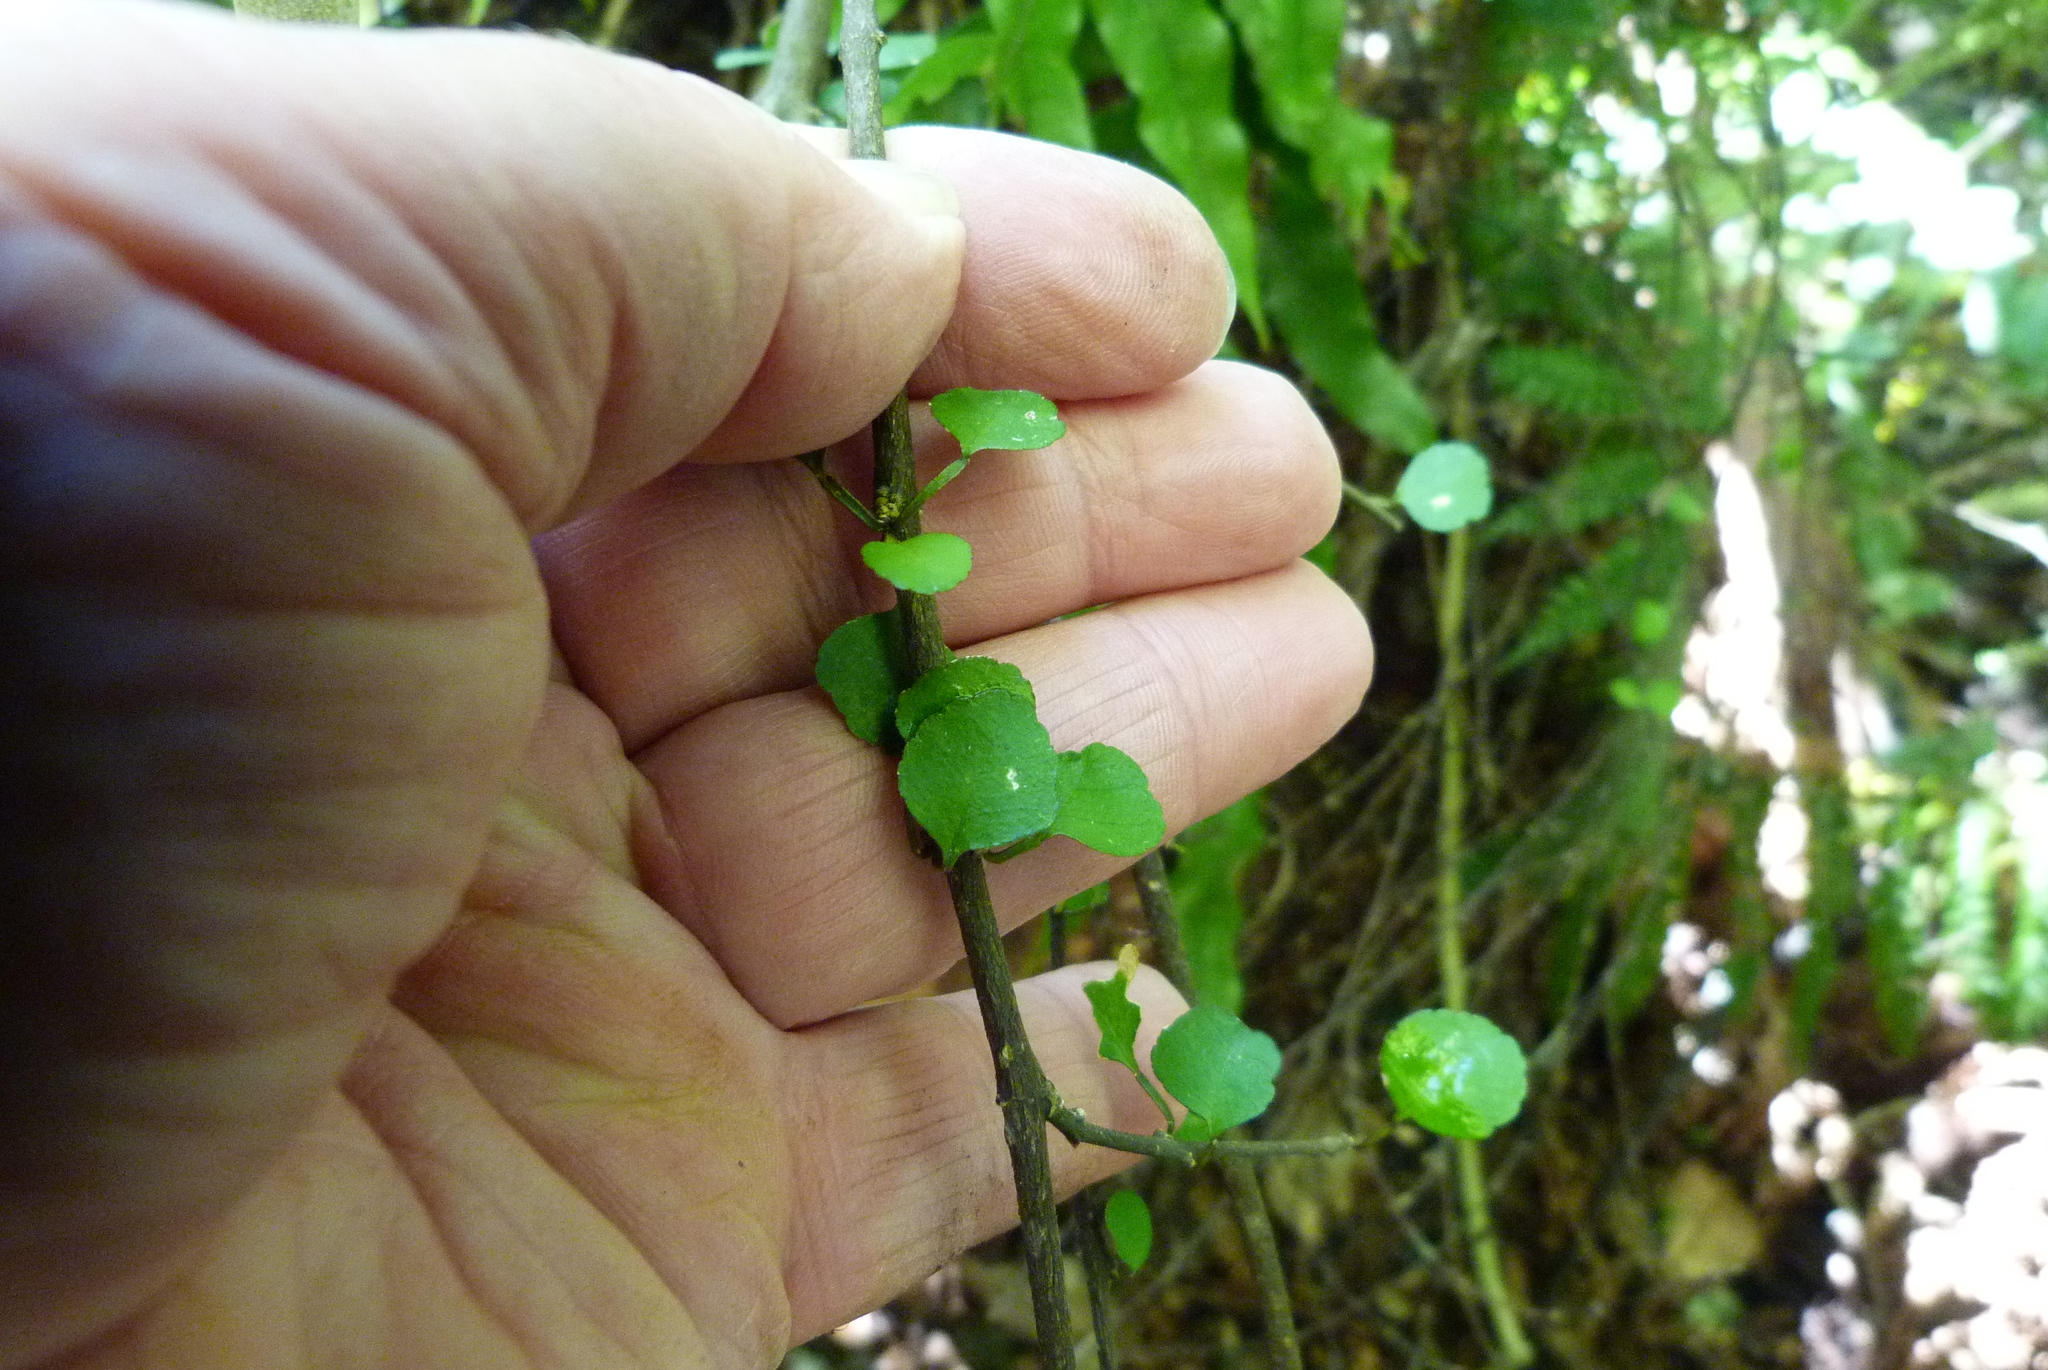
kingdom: Plantae
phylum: Tracheophyta
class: Magnoliopsida
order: Sapindales
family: Rutaceae
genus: Melicope
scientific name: Melicope simplex
